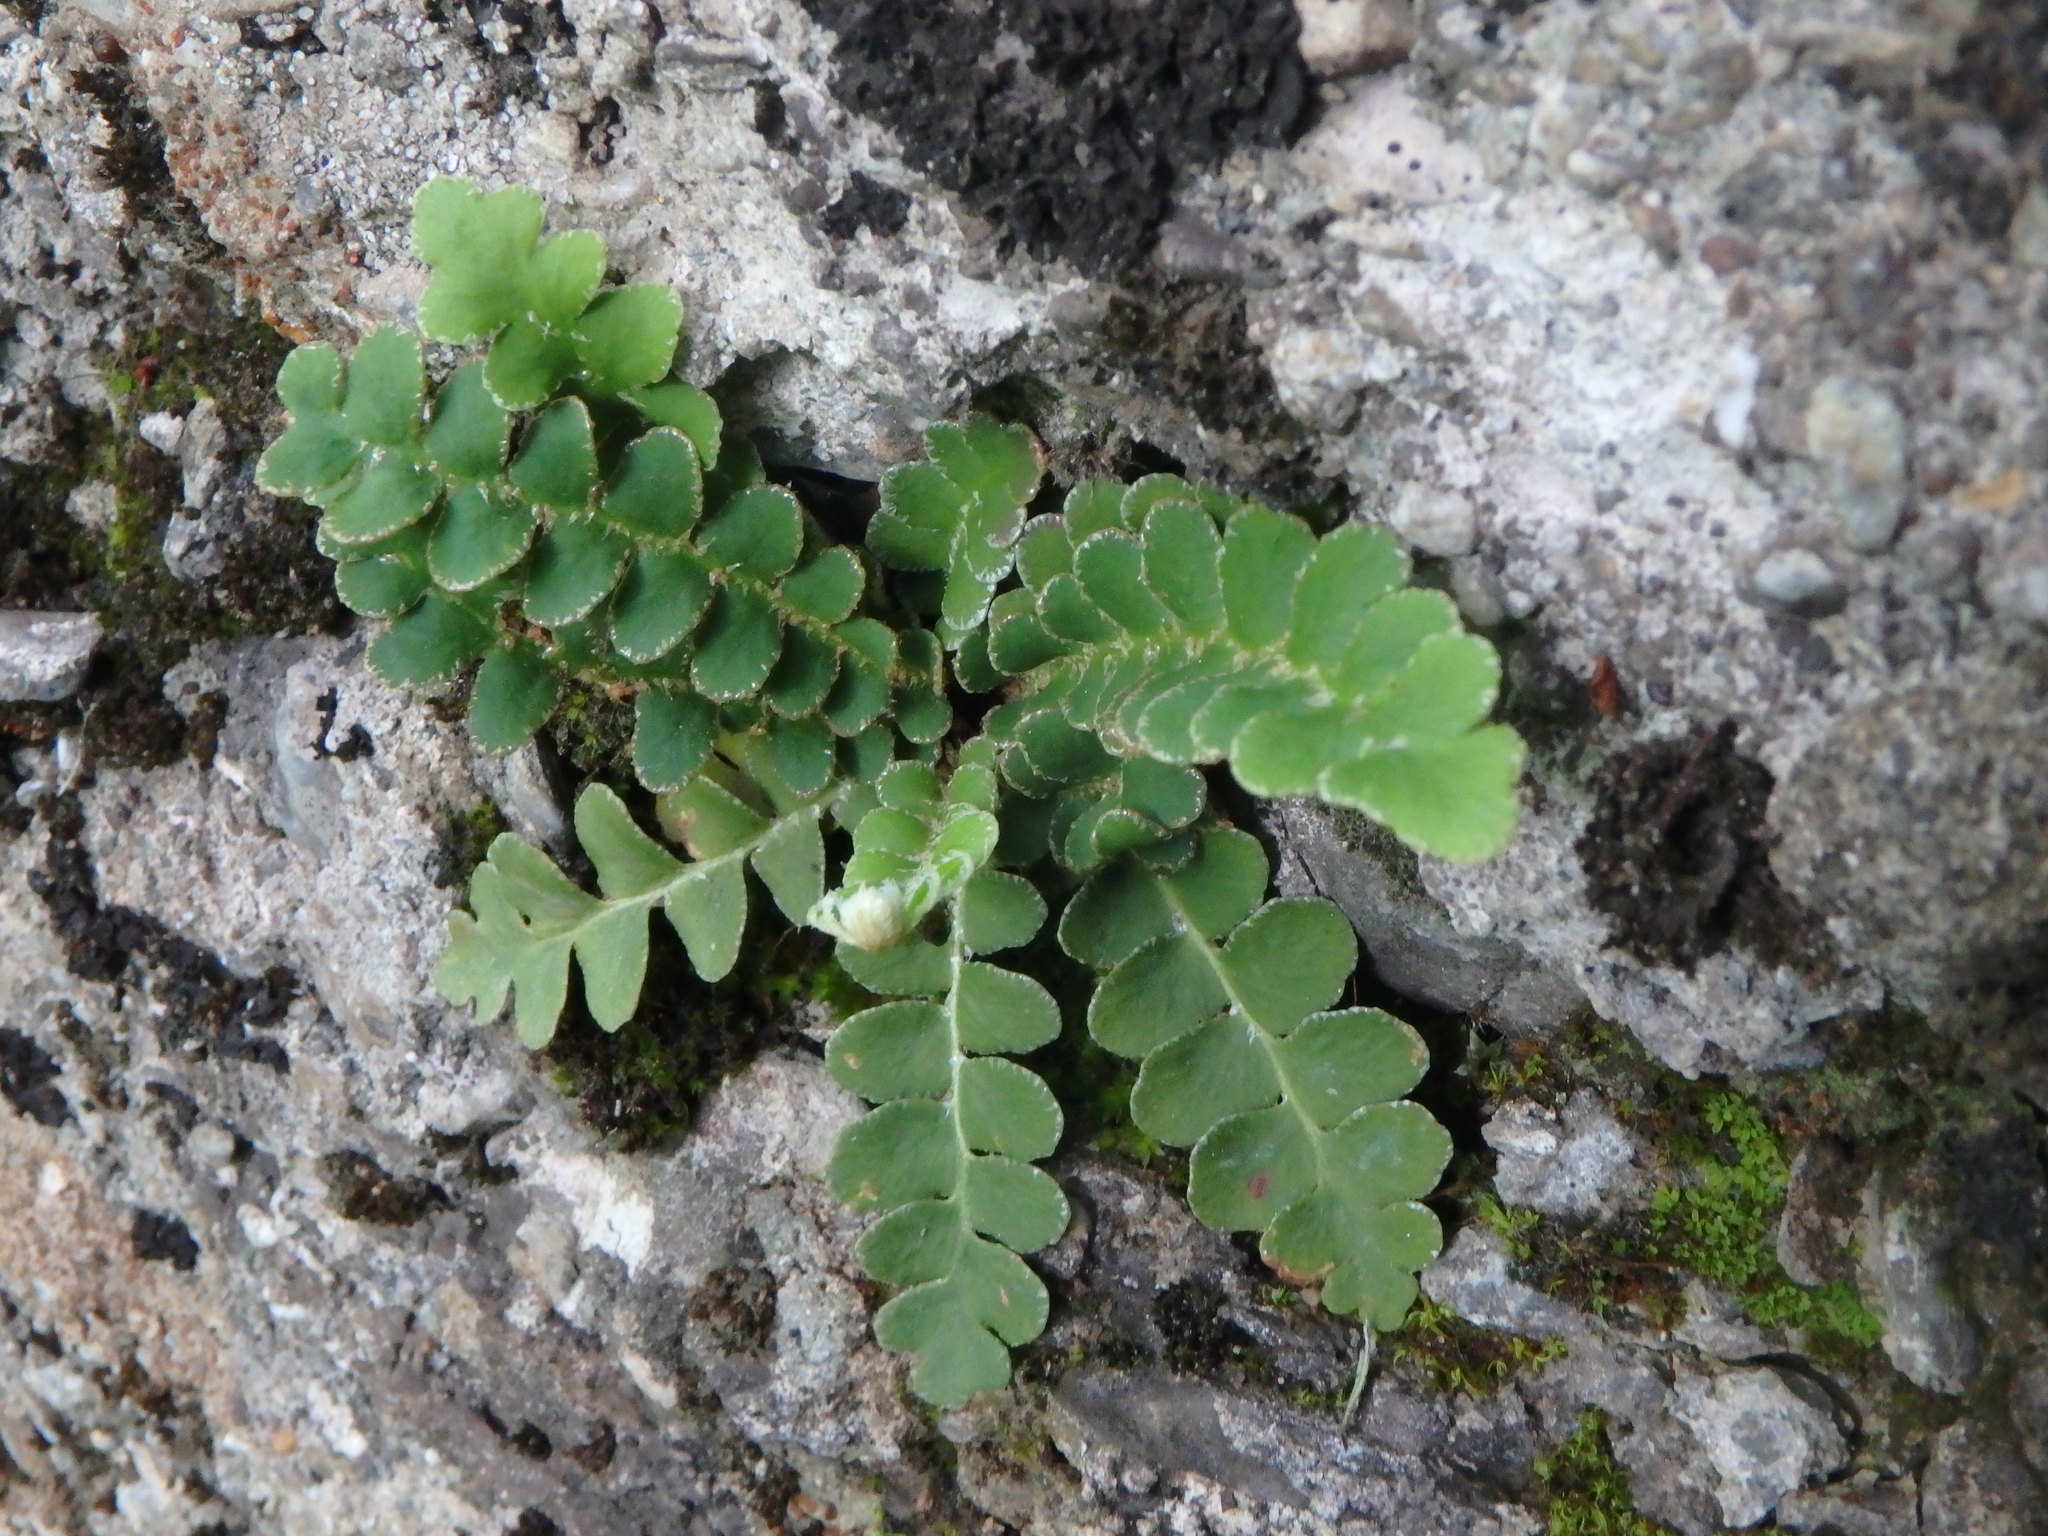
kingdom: Plantae
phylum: Tracheophyta
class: Polypodiopsida
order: Polypodiales
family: Aspleniaceae
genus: Asplenium
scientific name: Asplenium ceterach
